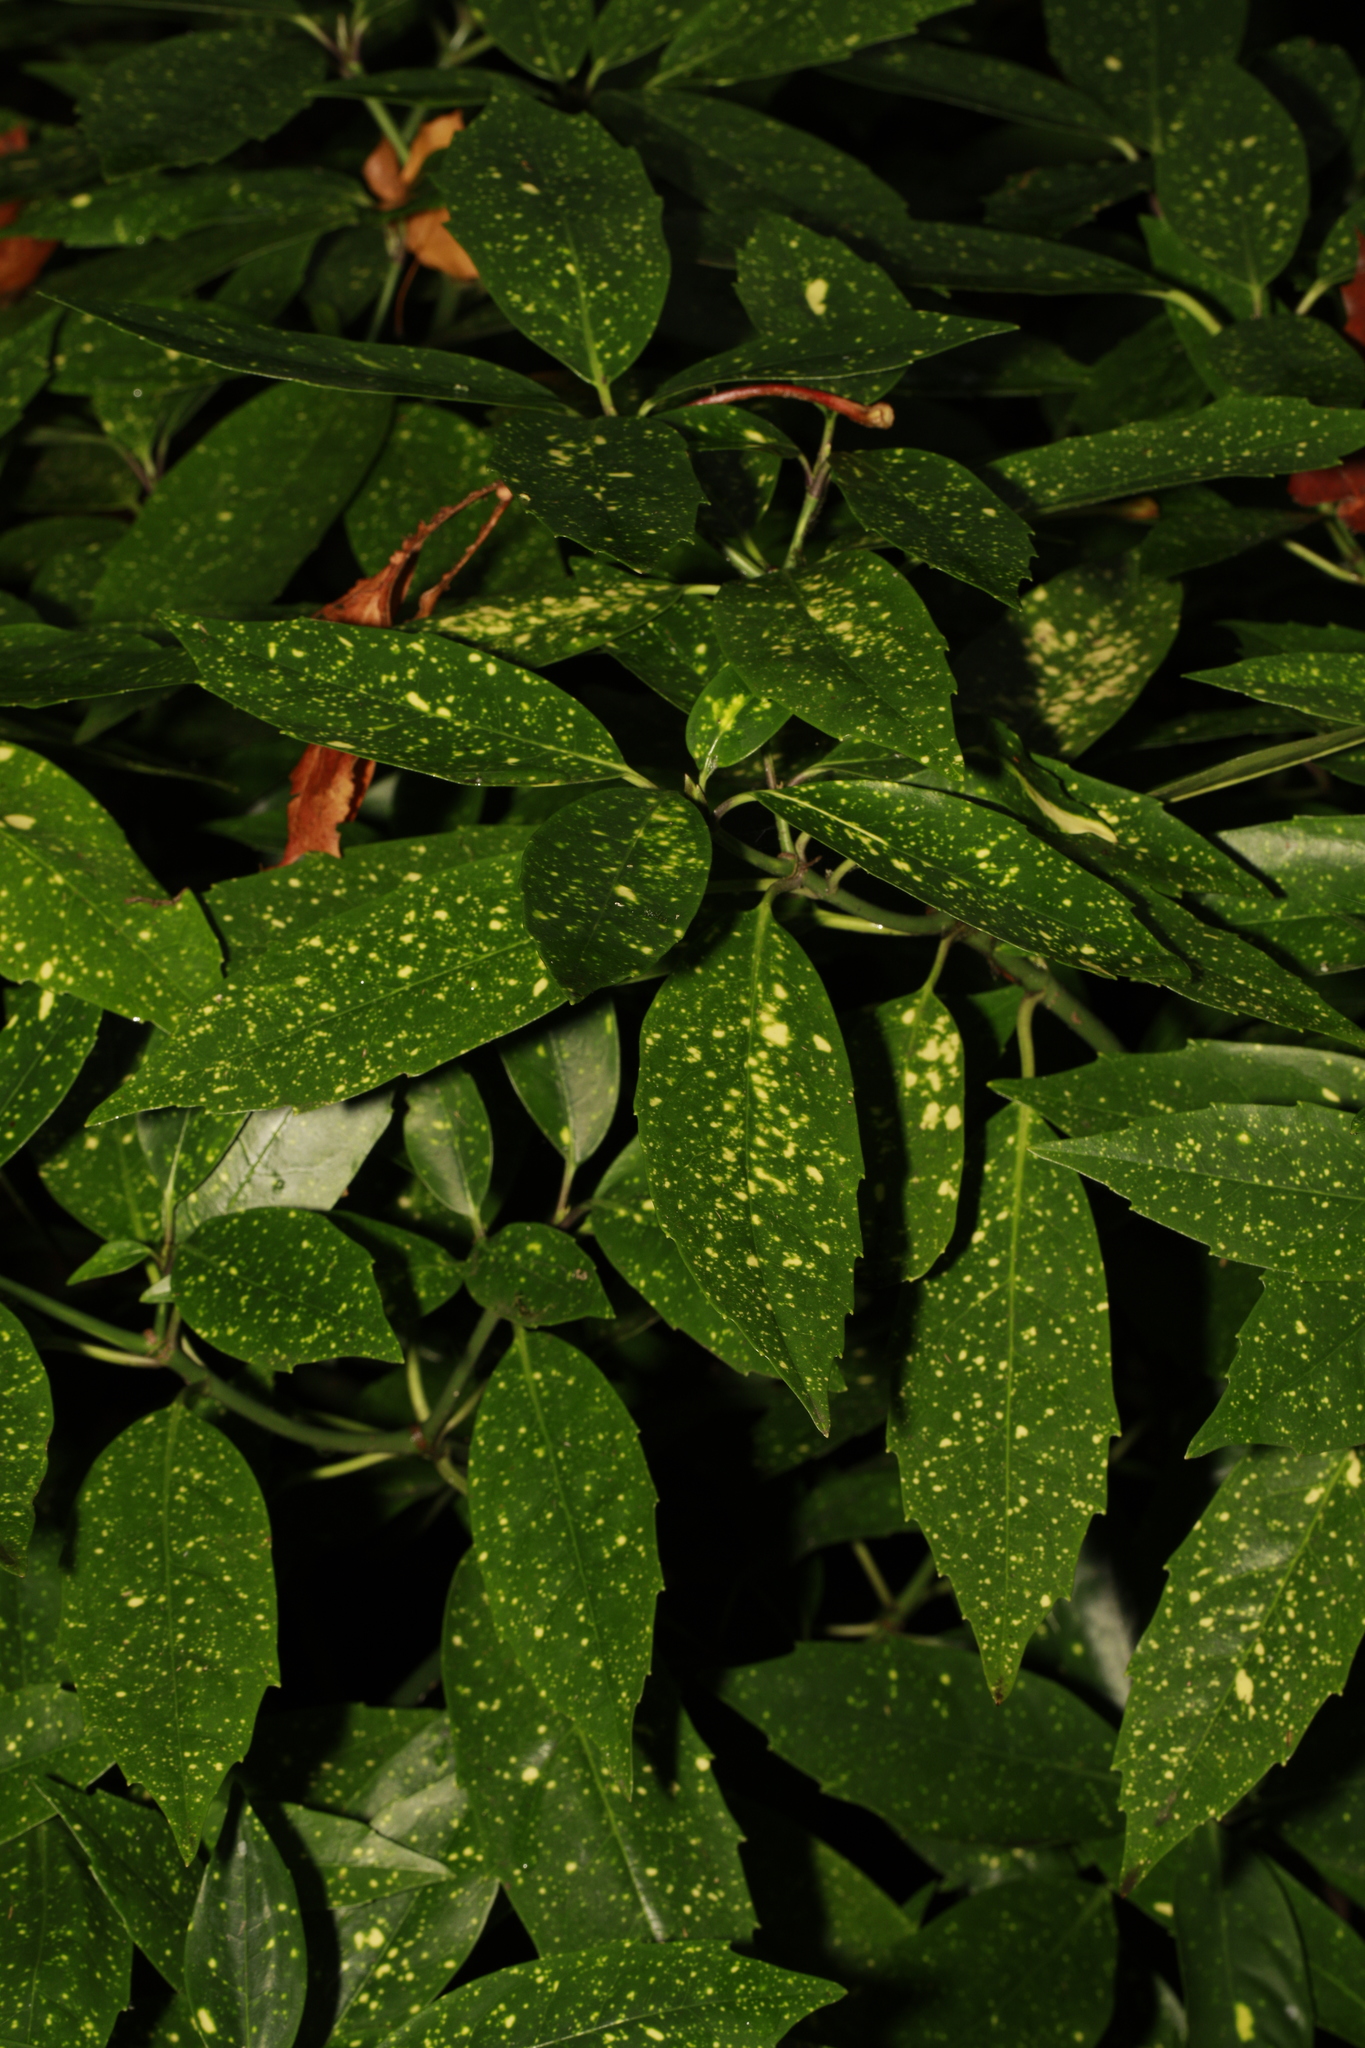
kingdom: Plantae
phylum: Tracheophyta
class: Magnoliopsida
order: Garryales
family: Garryaceae
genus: Aucuba
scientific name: Aucuba japonica
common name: Spotted-laurel
